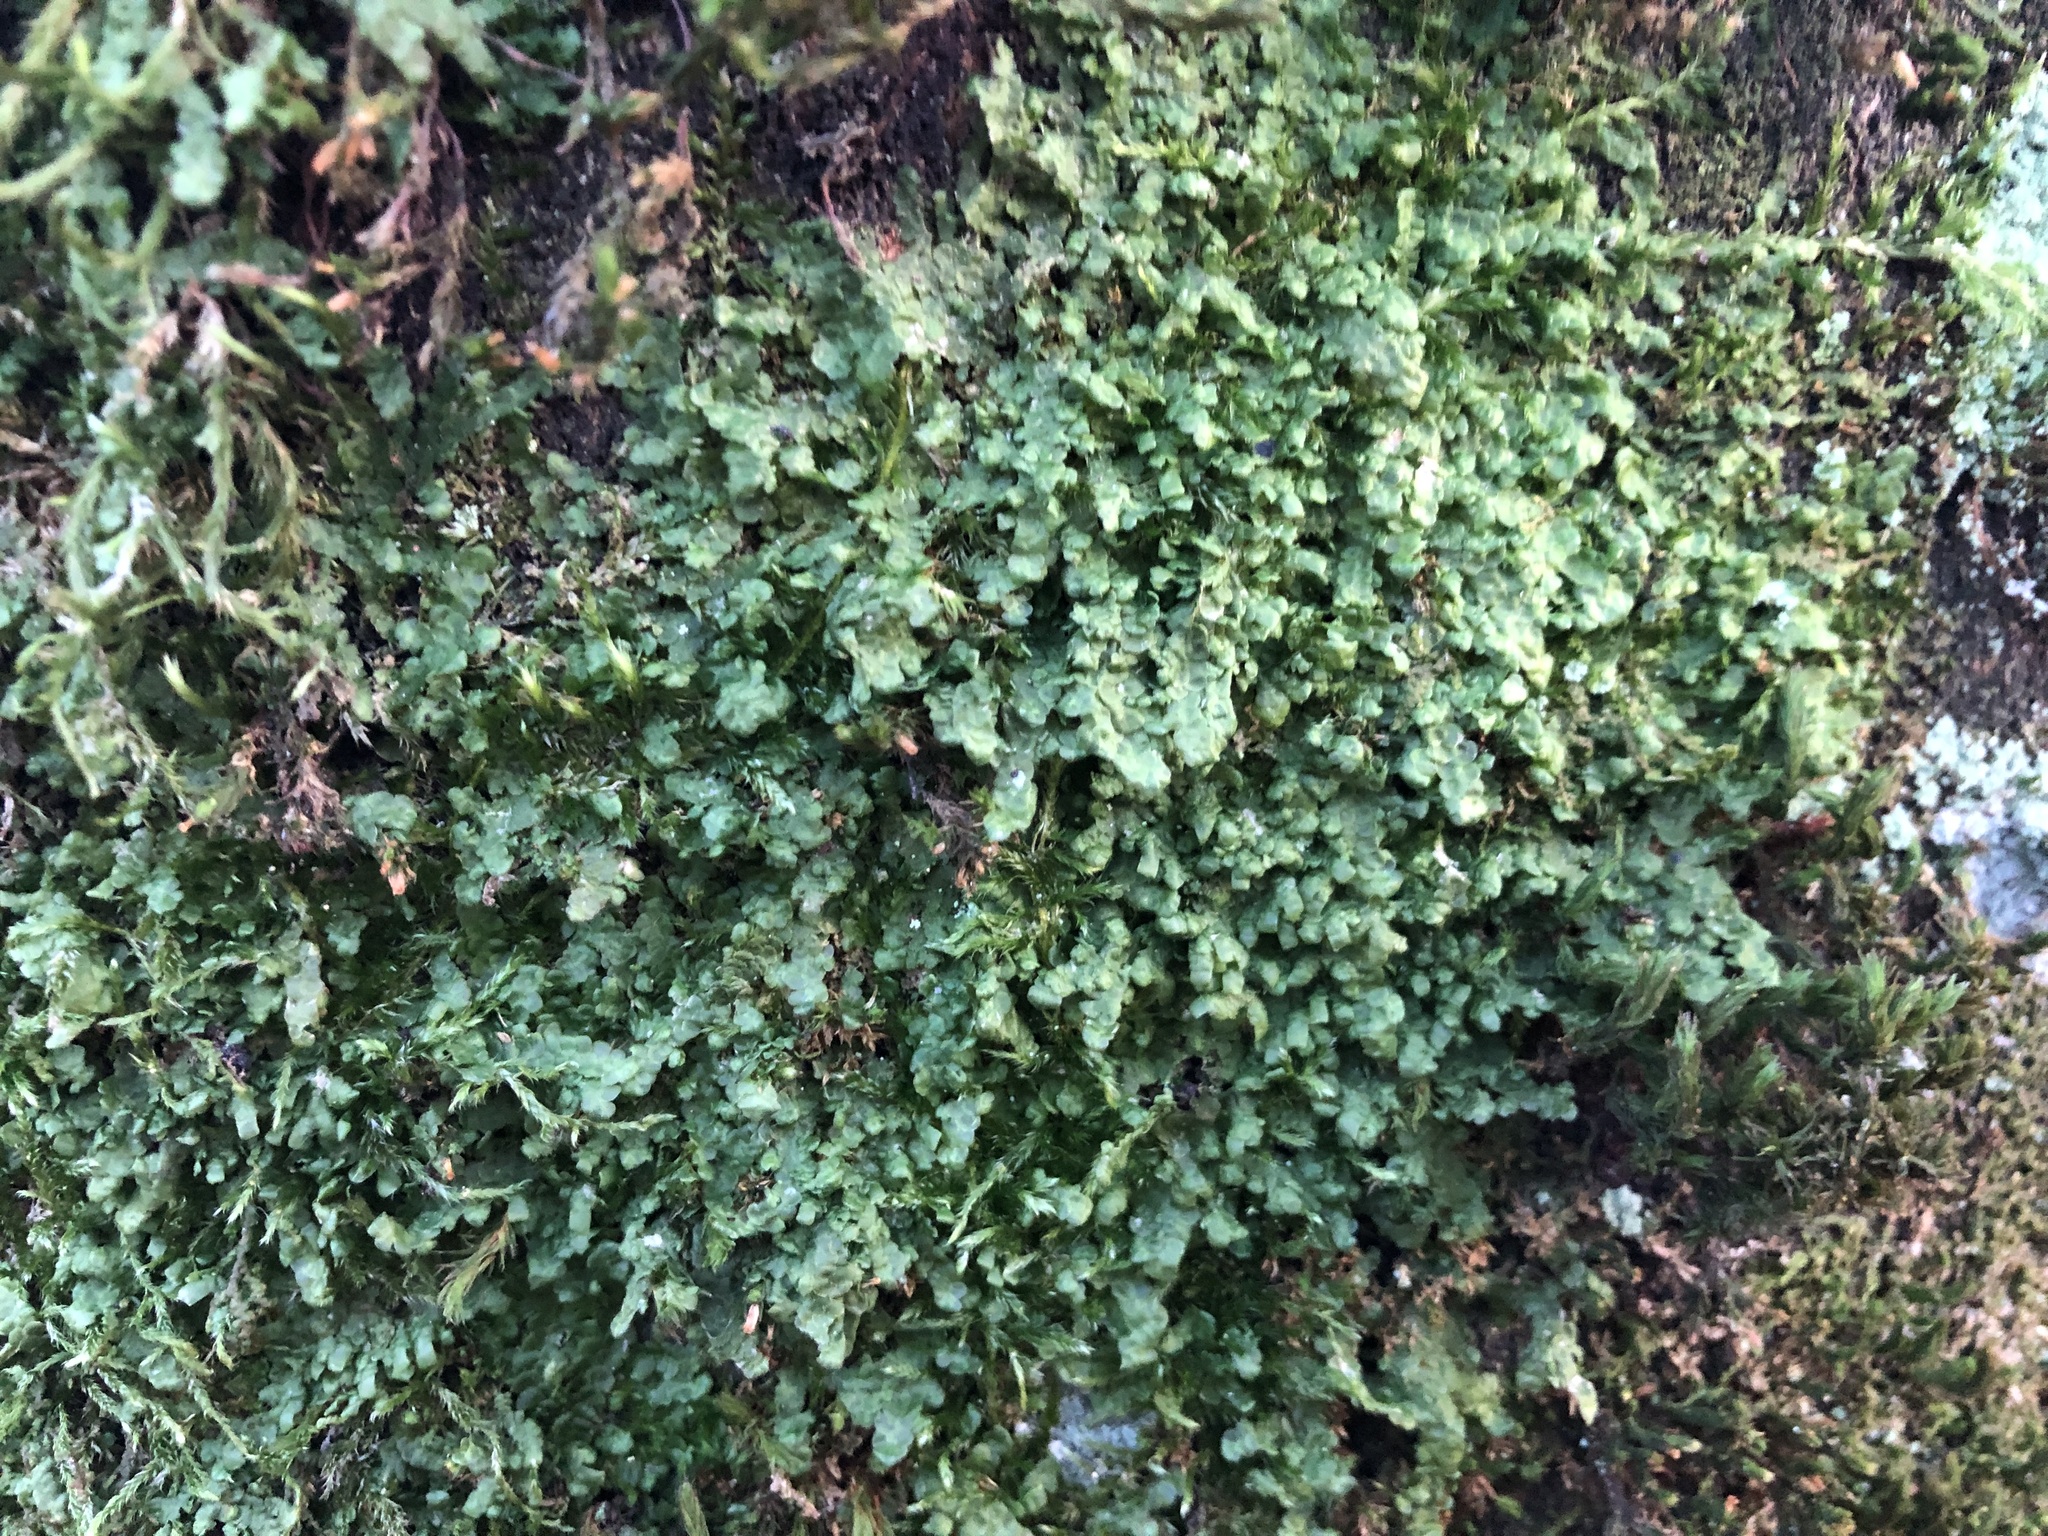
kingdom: Plantae
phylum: Marchantiophyta
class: Jungermanniopsida
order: Porellales
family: Radulaceae
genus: Radula
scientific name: Radula complanata
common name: Flat-leaved scalewort
